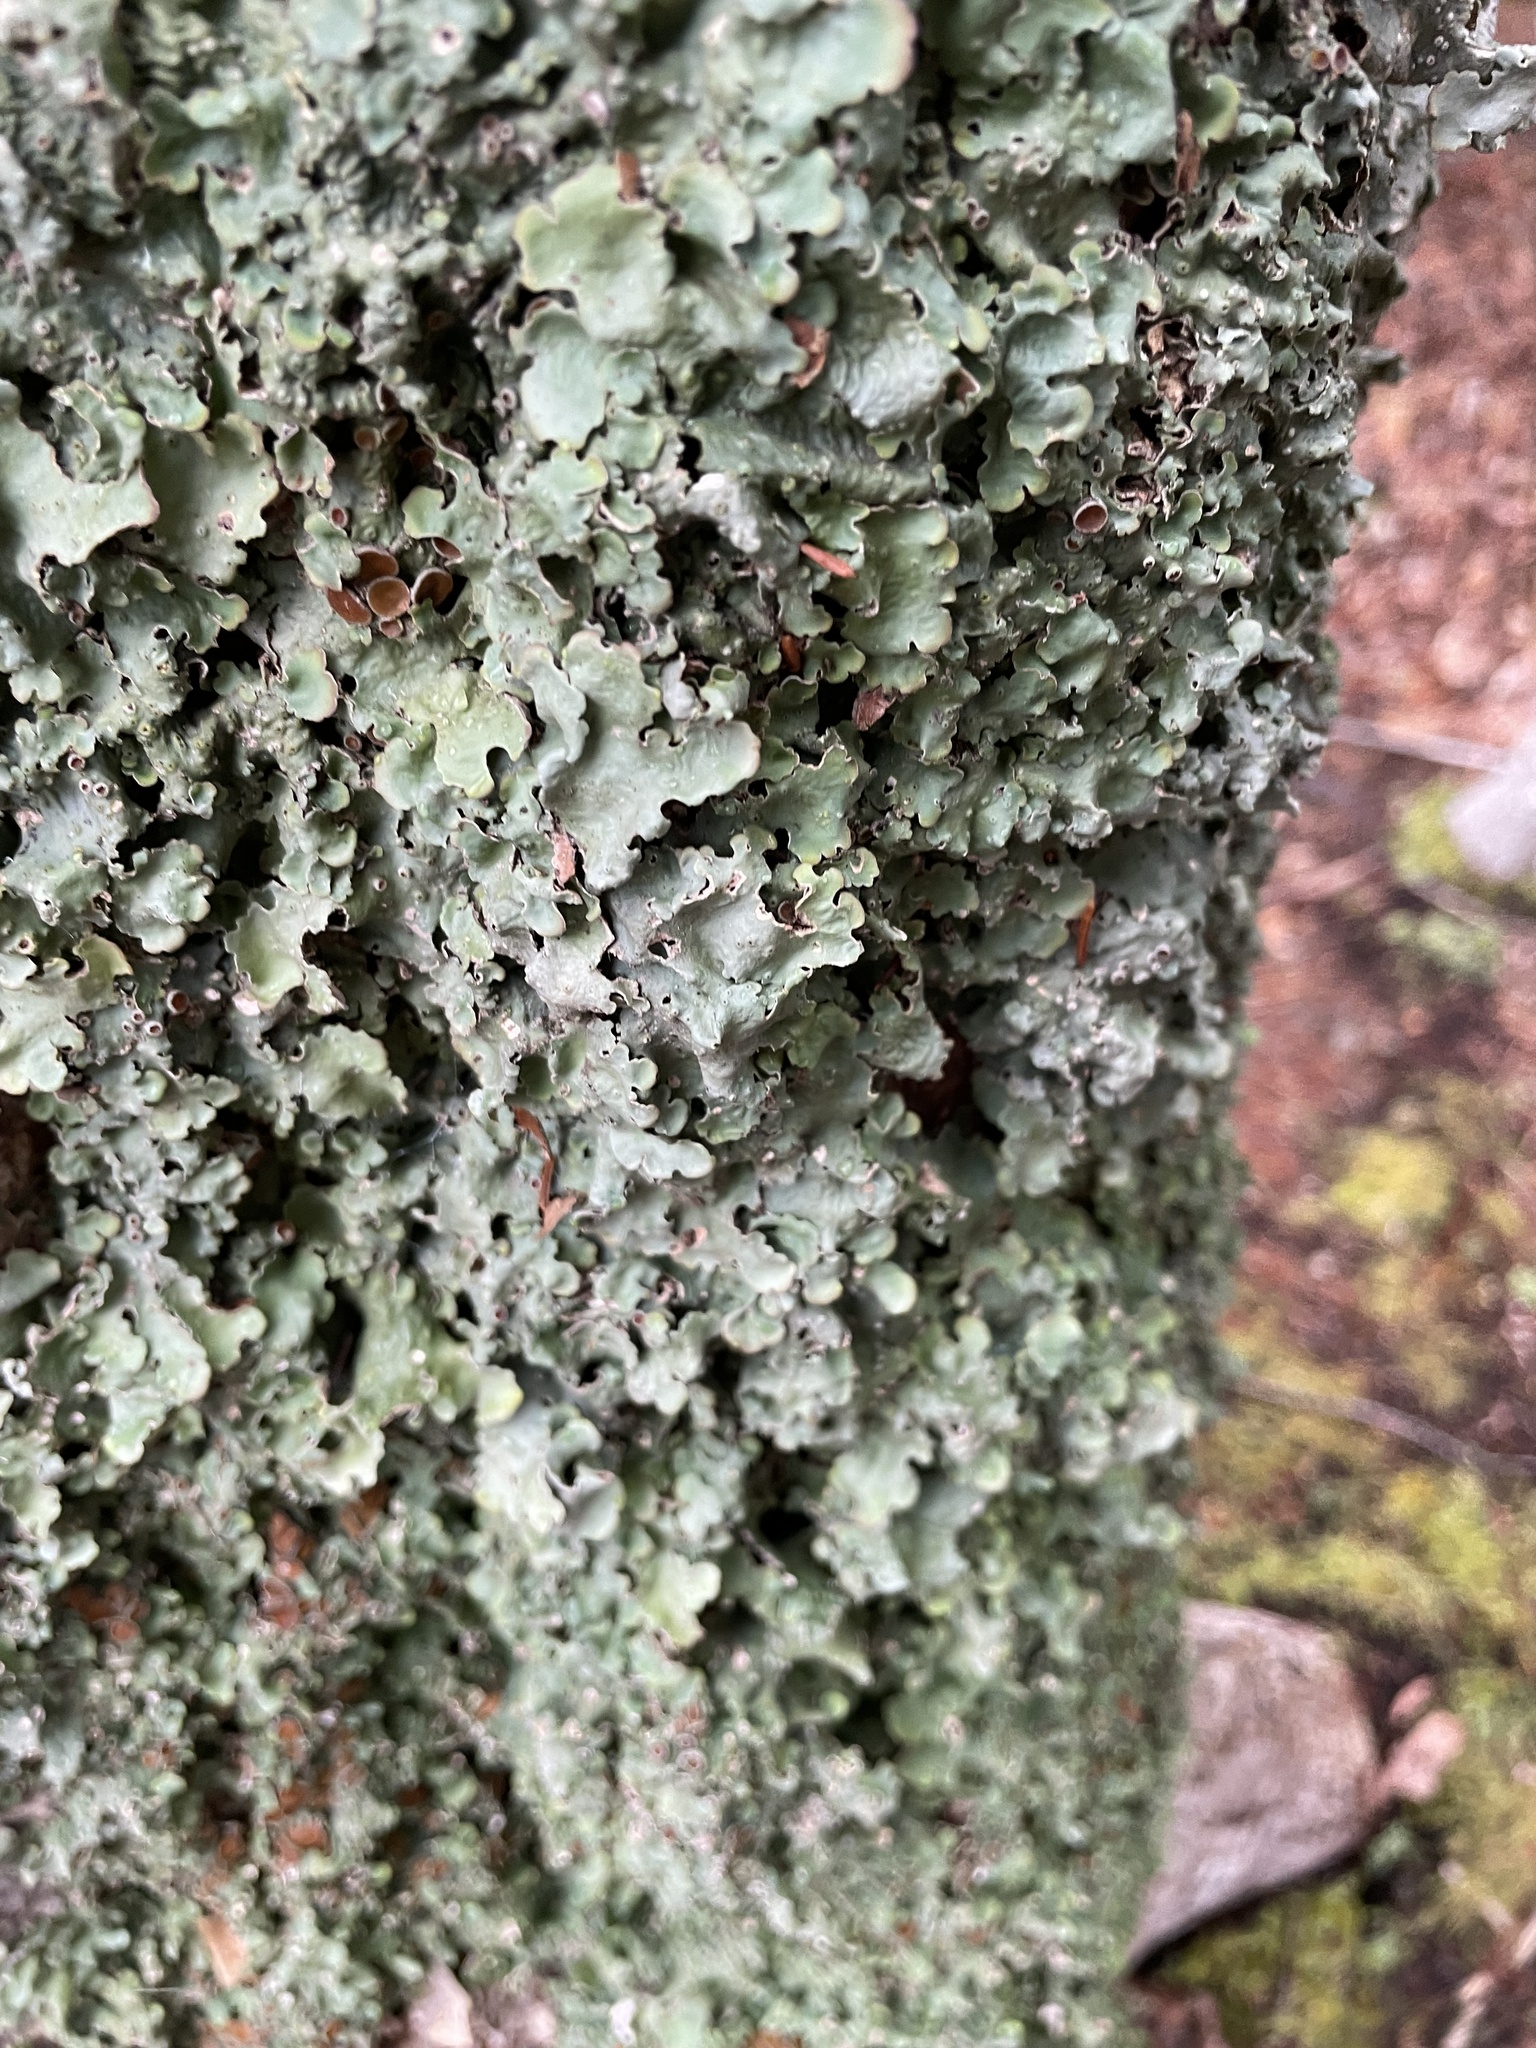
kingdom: Fungi
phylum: Ascomycota
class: Lecanoromycetes
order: Peltigerales
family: Lobariaceae
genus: Ricasolia
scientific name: Ricasolia quercizans
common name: Smooth lungwort
